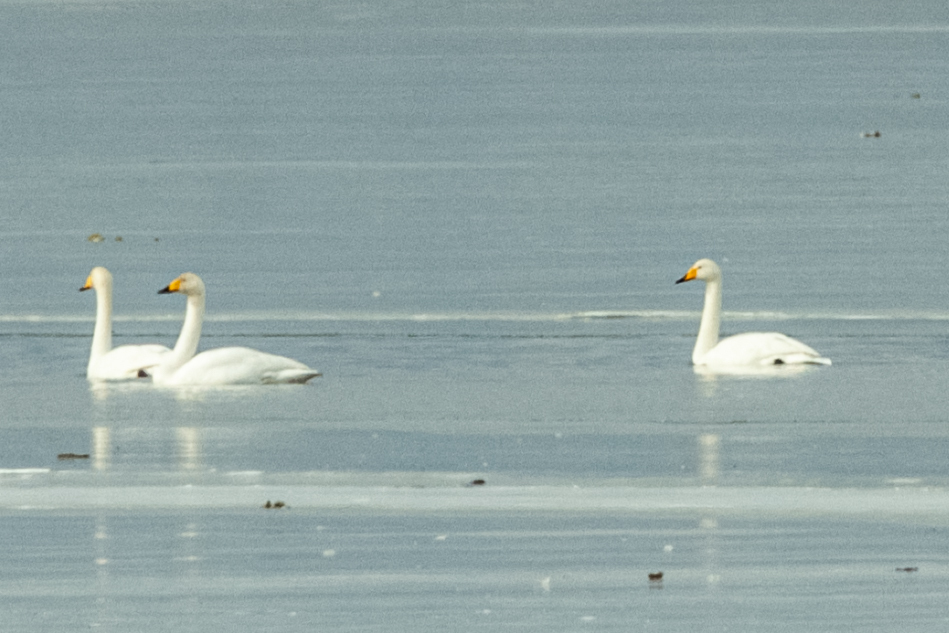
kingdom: Animalia
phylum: Chordata
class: Aves
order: Anseriformes
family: Anatidae
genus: Cygnus
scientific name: Cygnus cygnus
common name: Whooper swan
